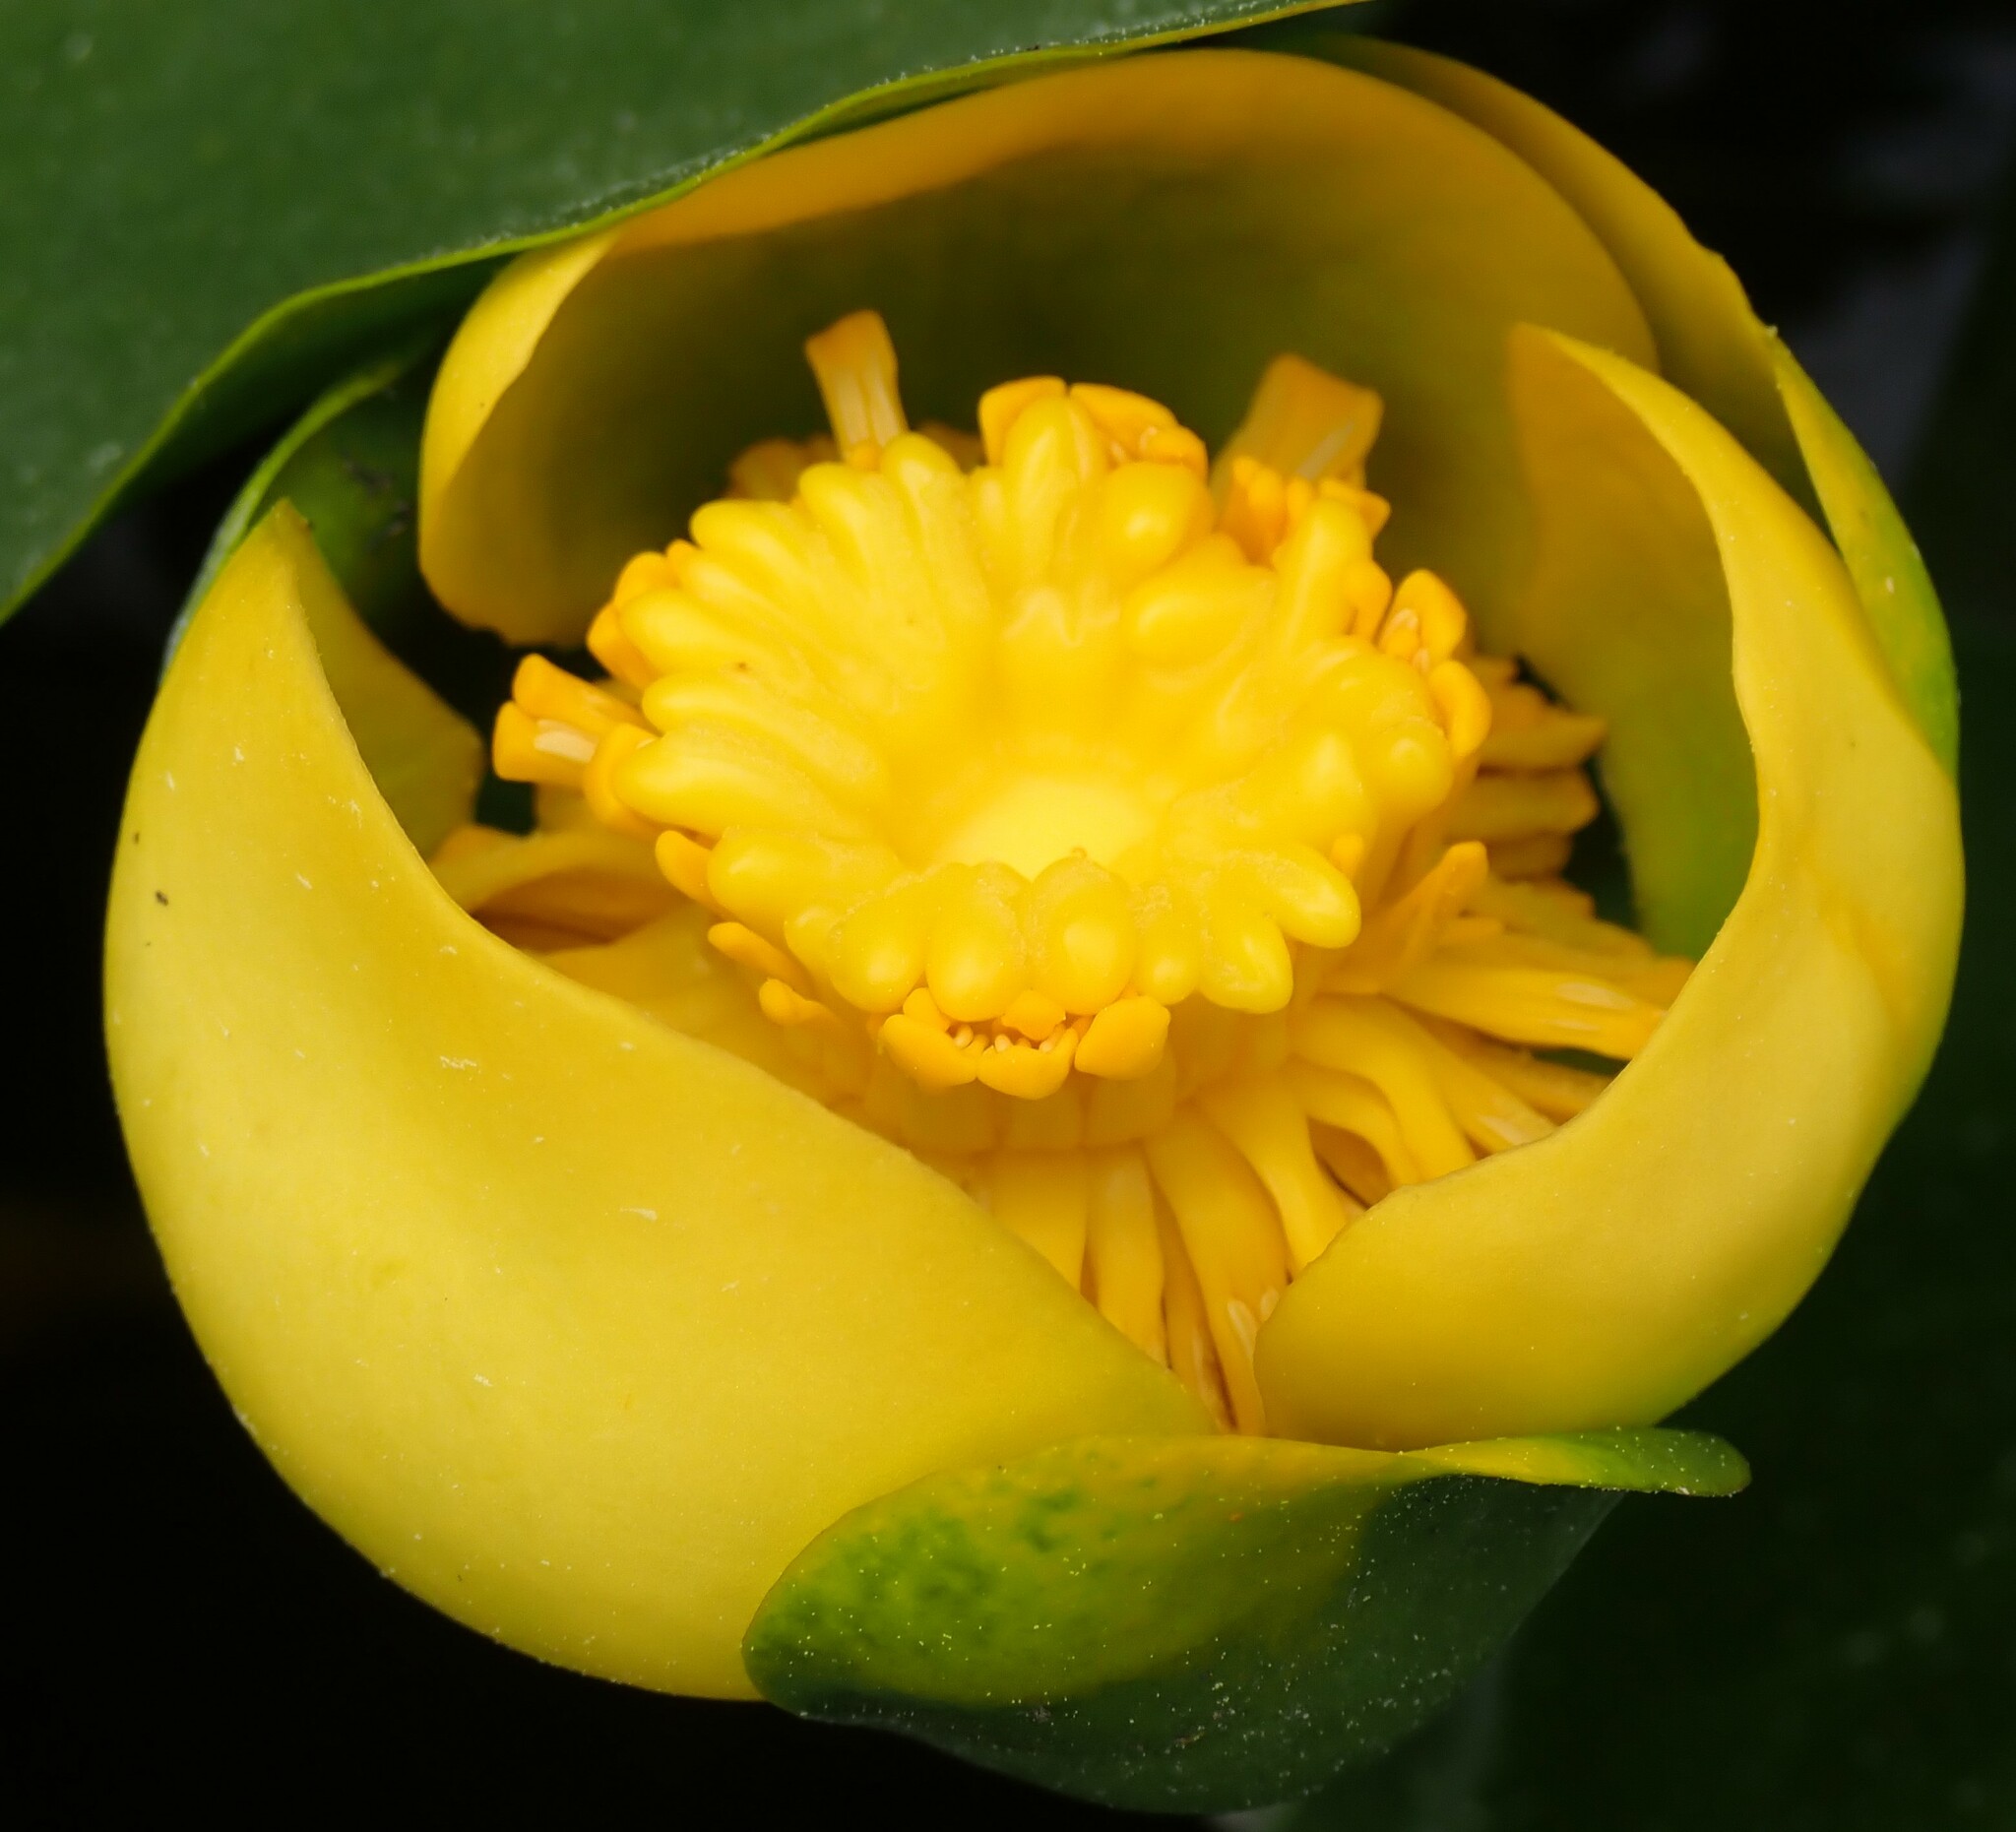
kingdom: Plantae
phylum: Tracheophyta
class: Magnoliopsida
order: Nymphaeales
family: Nymphaeaceae
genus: Nuphar
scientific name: Nuphar advena
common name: Spatter-dock
